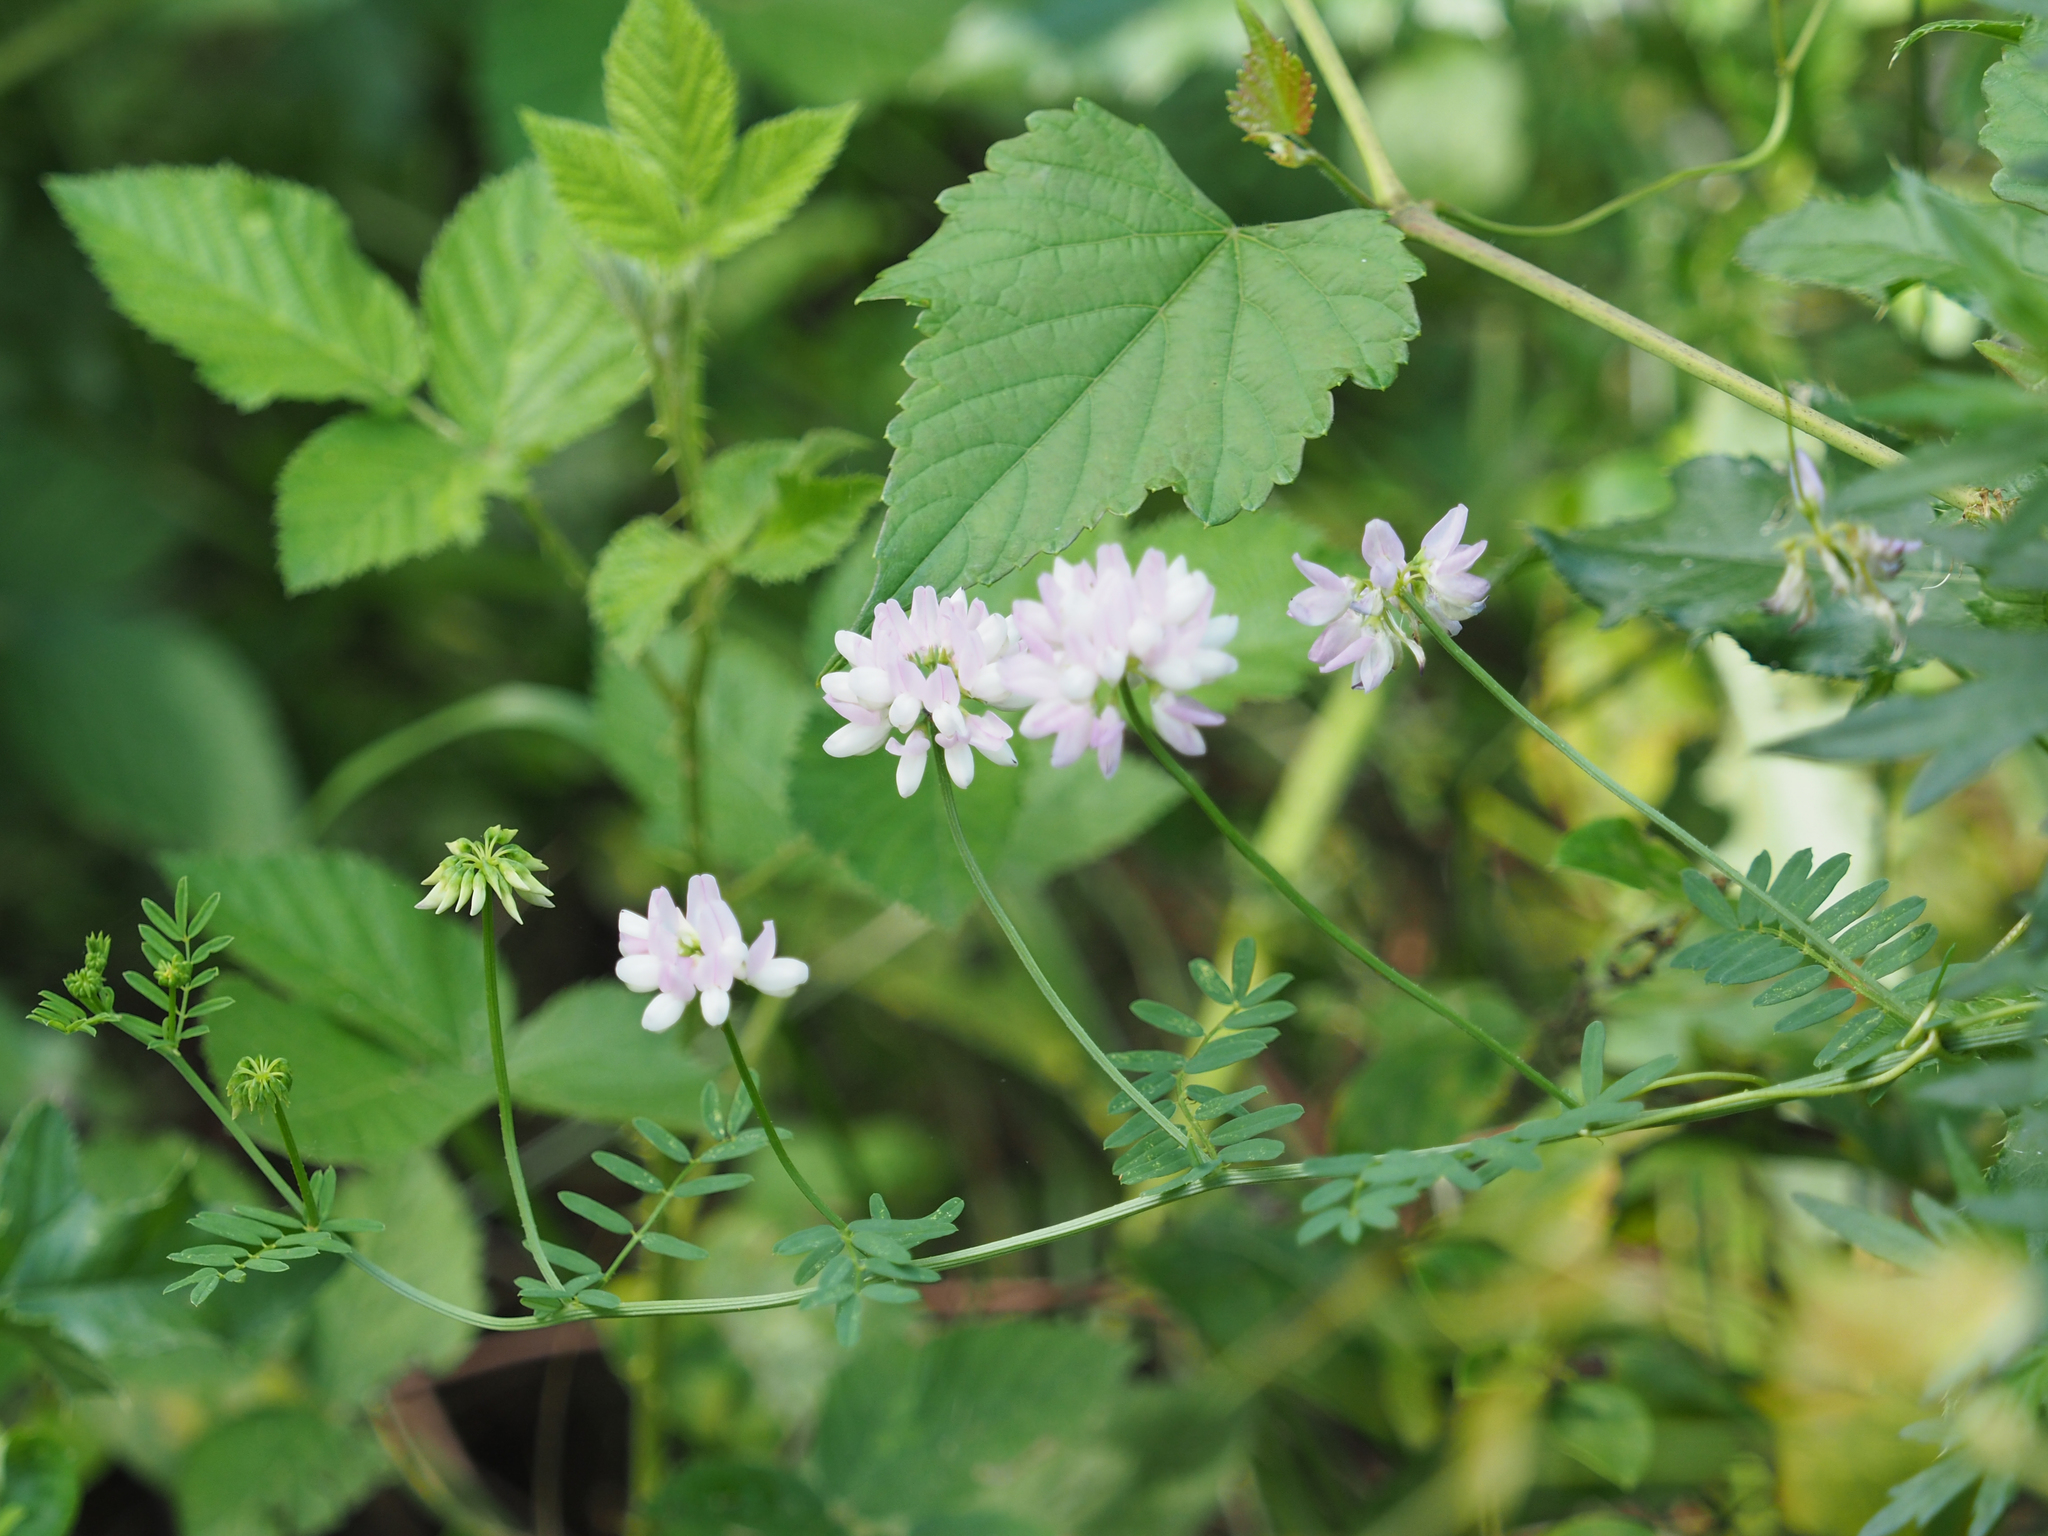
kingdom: Plantae
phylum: Tracheophyta
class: Magnoliopsida
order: Fabales
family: Fabaceae
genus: Coronilla
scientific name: Coronilla varia
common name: Crownvetch
